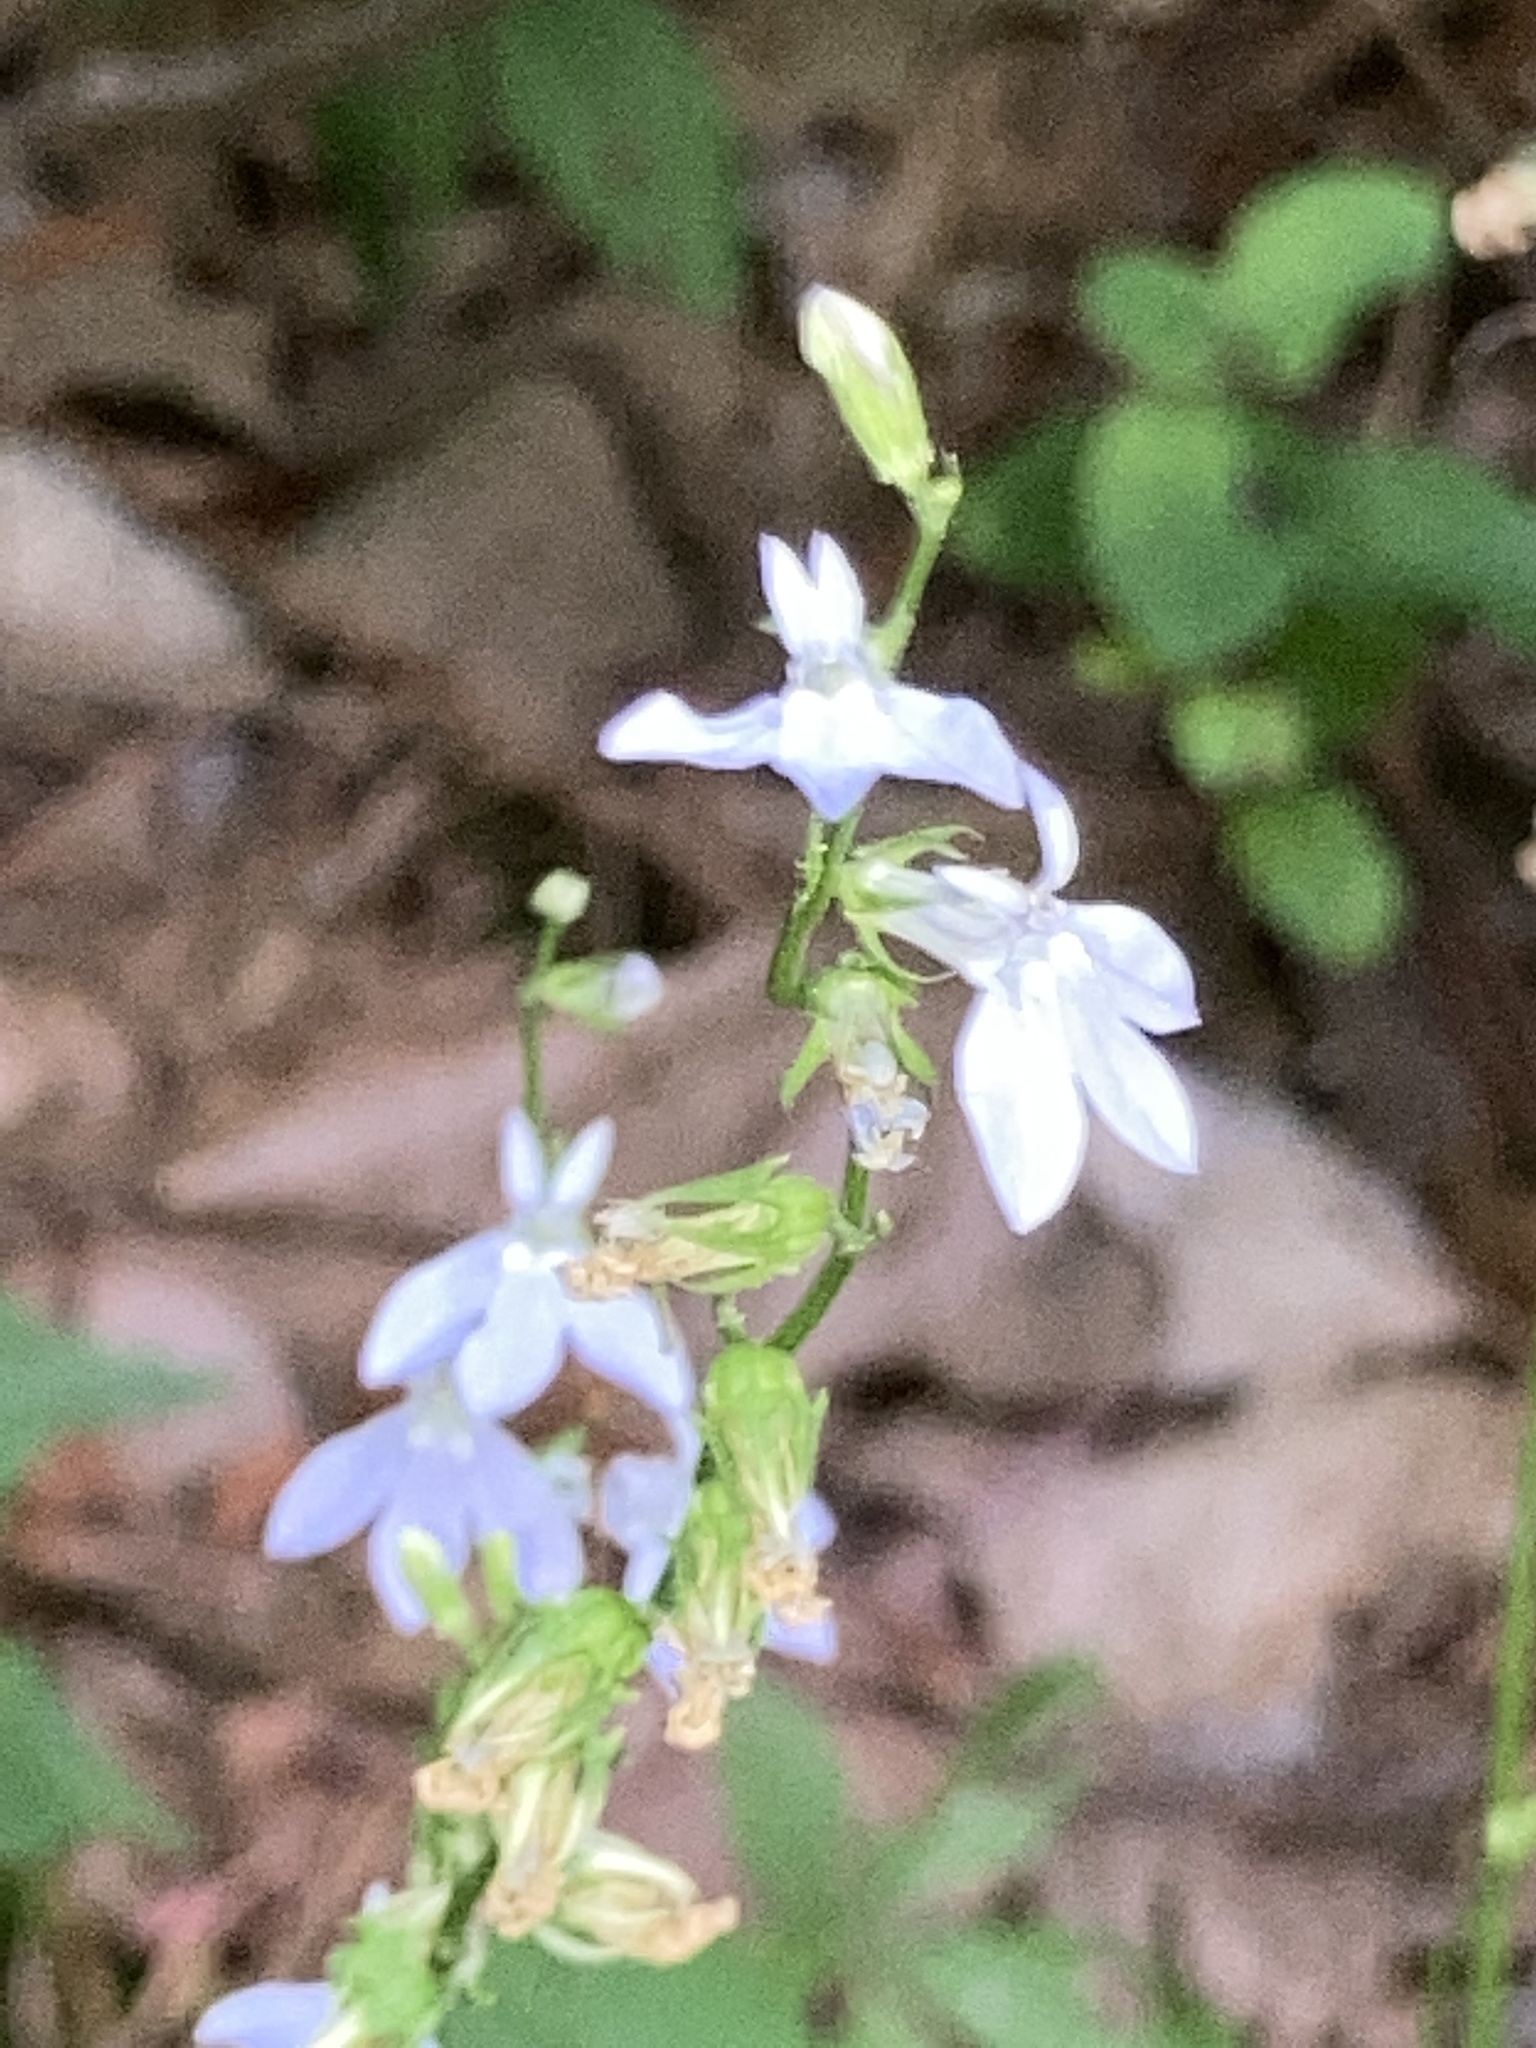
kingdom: Plantae
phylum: Tracheophyta
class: Magnoliopsida
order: Asterales
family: Campanulaceae
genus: Lobelia
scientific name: Lobelia appendiculata
